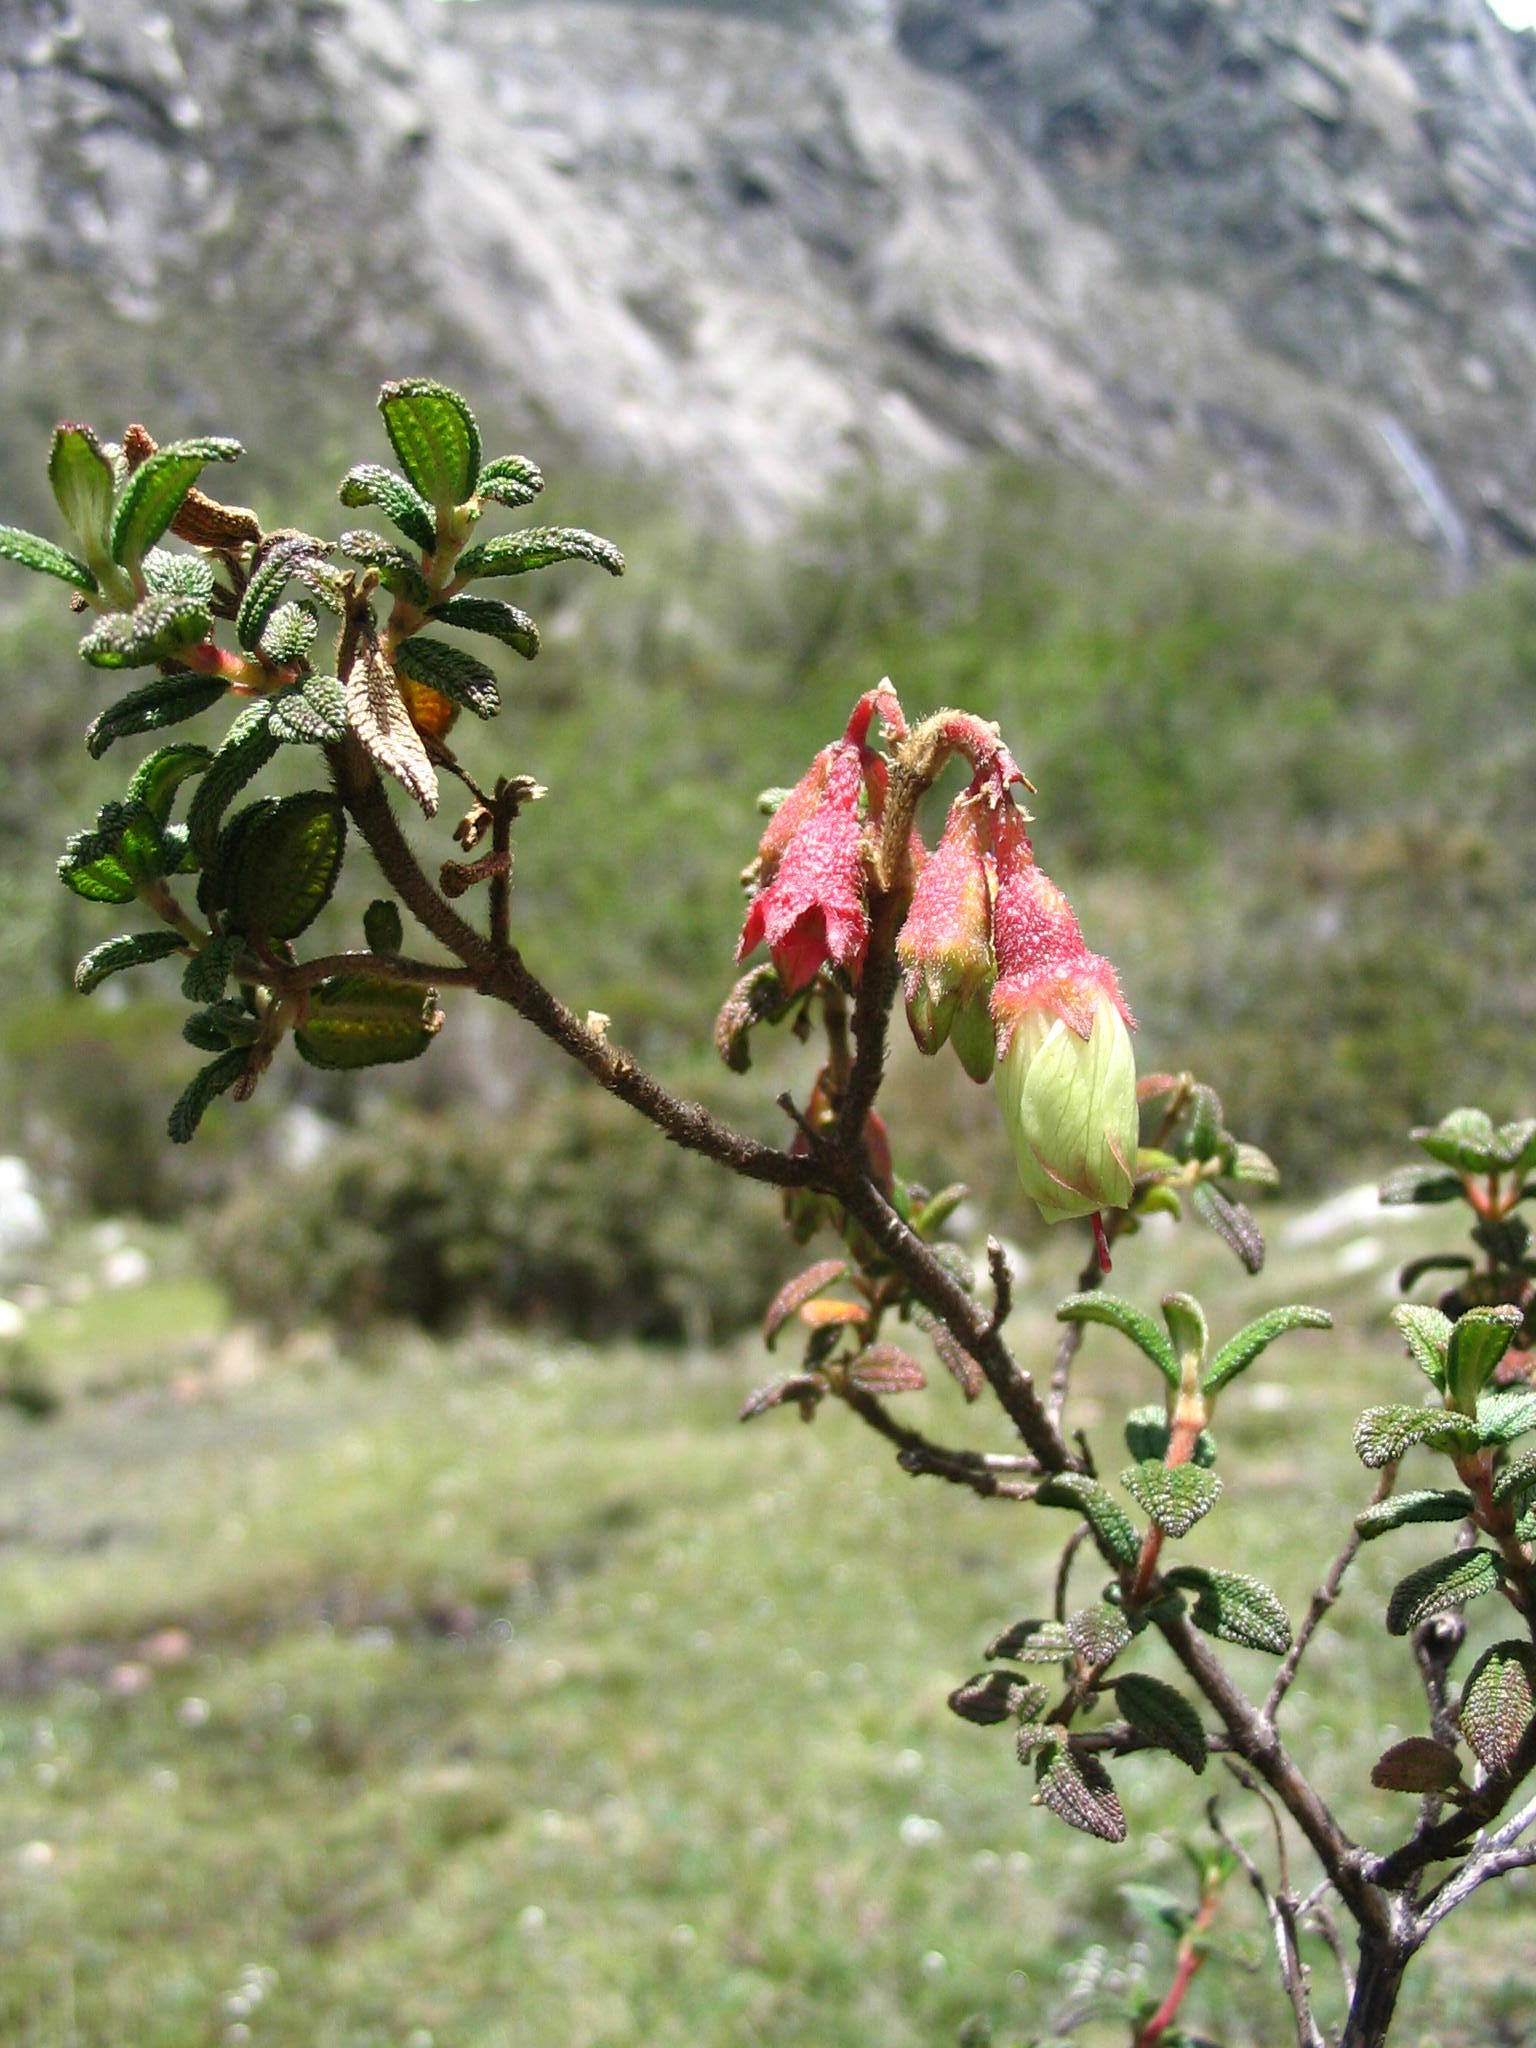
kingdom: Plantae
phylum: Tracheophyta
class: Magnoliopsida
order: Myrtales
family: Melastomataceae
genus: Brachyotum
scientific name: Brachyotum ledifolium
